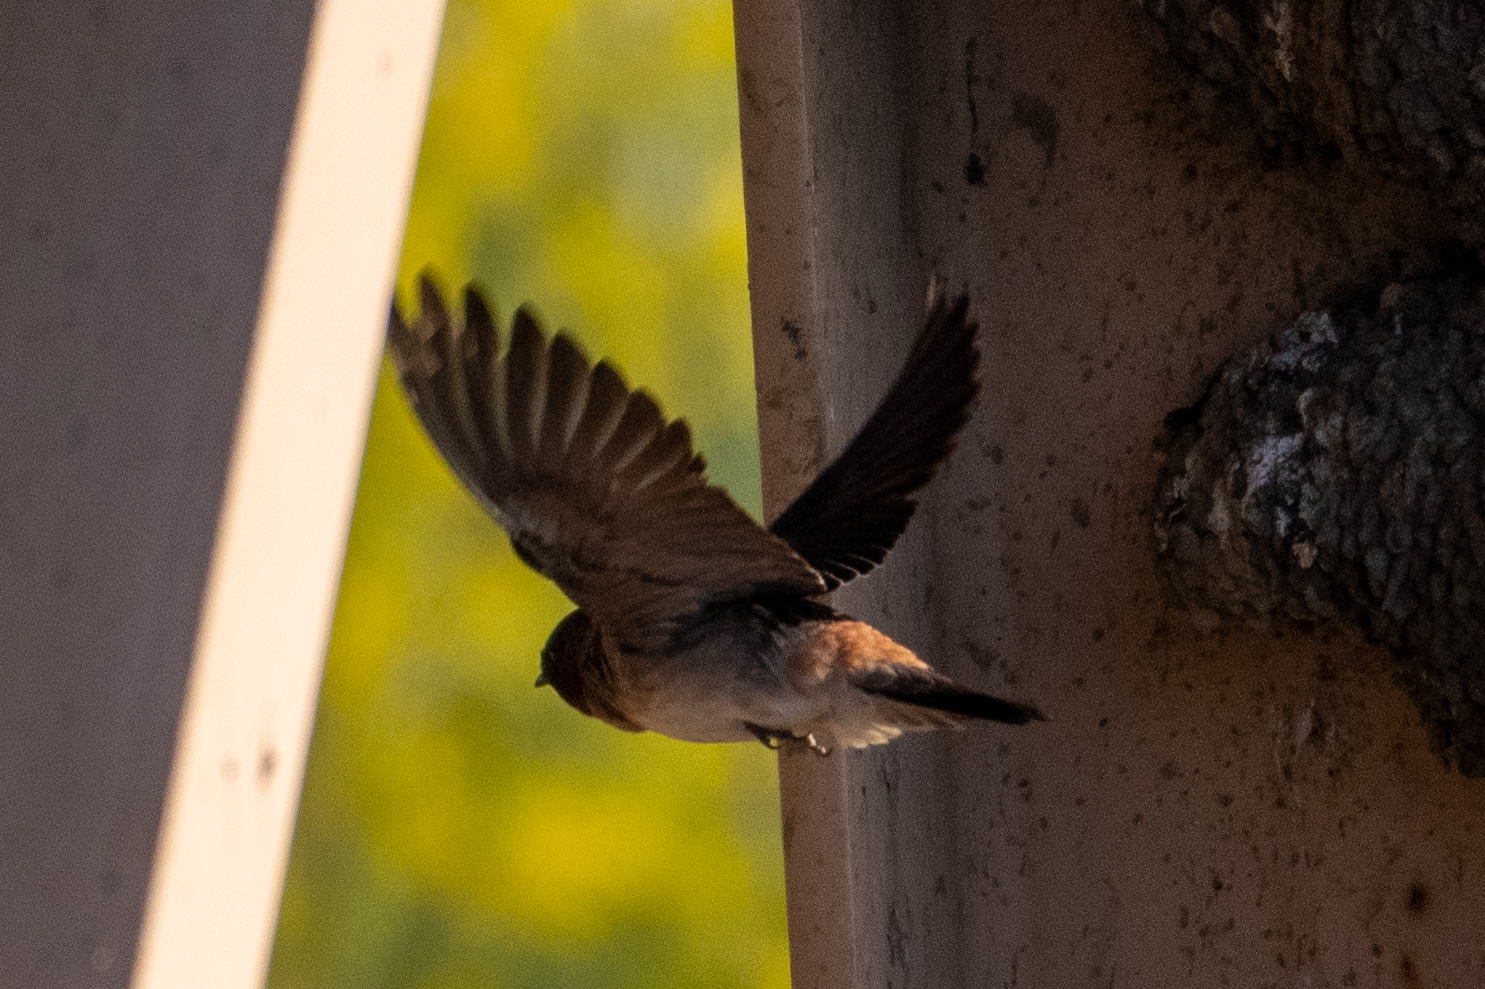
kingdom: Animalia
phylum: Chordata
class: Aves
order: Passeriformes
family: Hirundinidae
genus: Petrochelidon
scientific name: Petrochelidon pyrrhonota
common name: American cliff swallow
